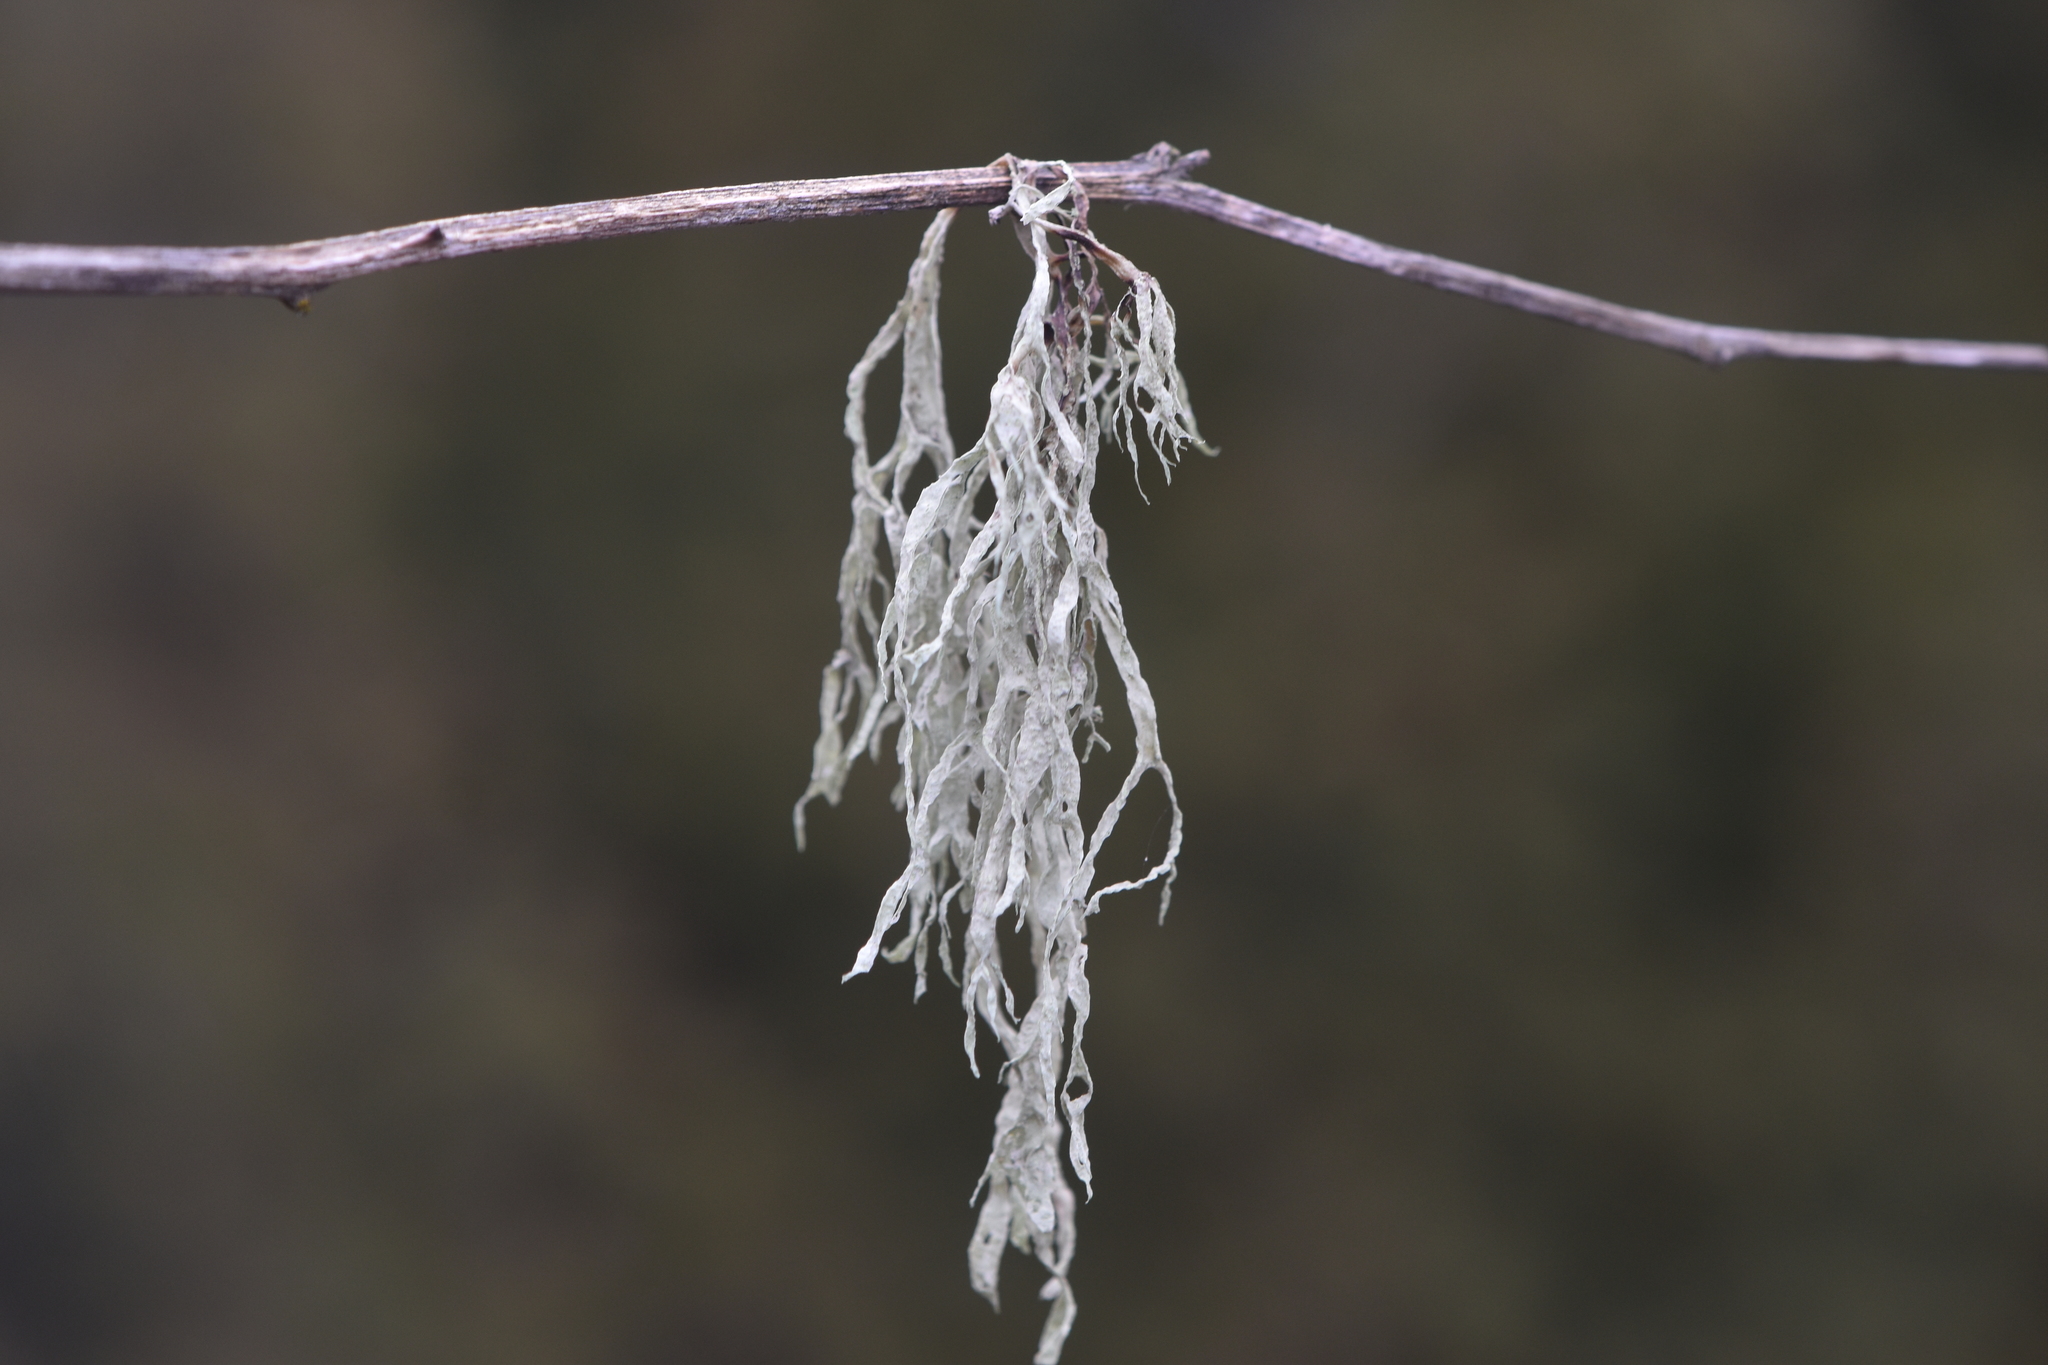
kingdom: Fungi
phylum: Ascomycota
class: Lecanoromycetes
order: Lecanorales
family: Ramalinaceae
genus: Ramalina
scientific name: Ramalina farinacea
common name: Farinose cartilage lichen
